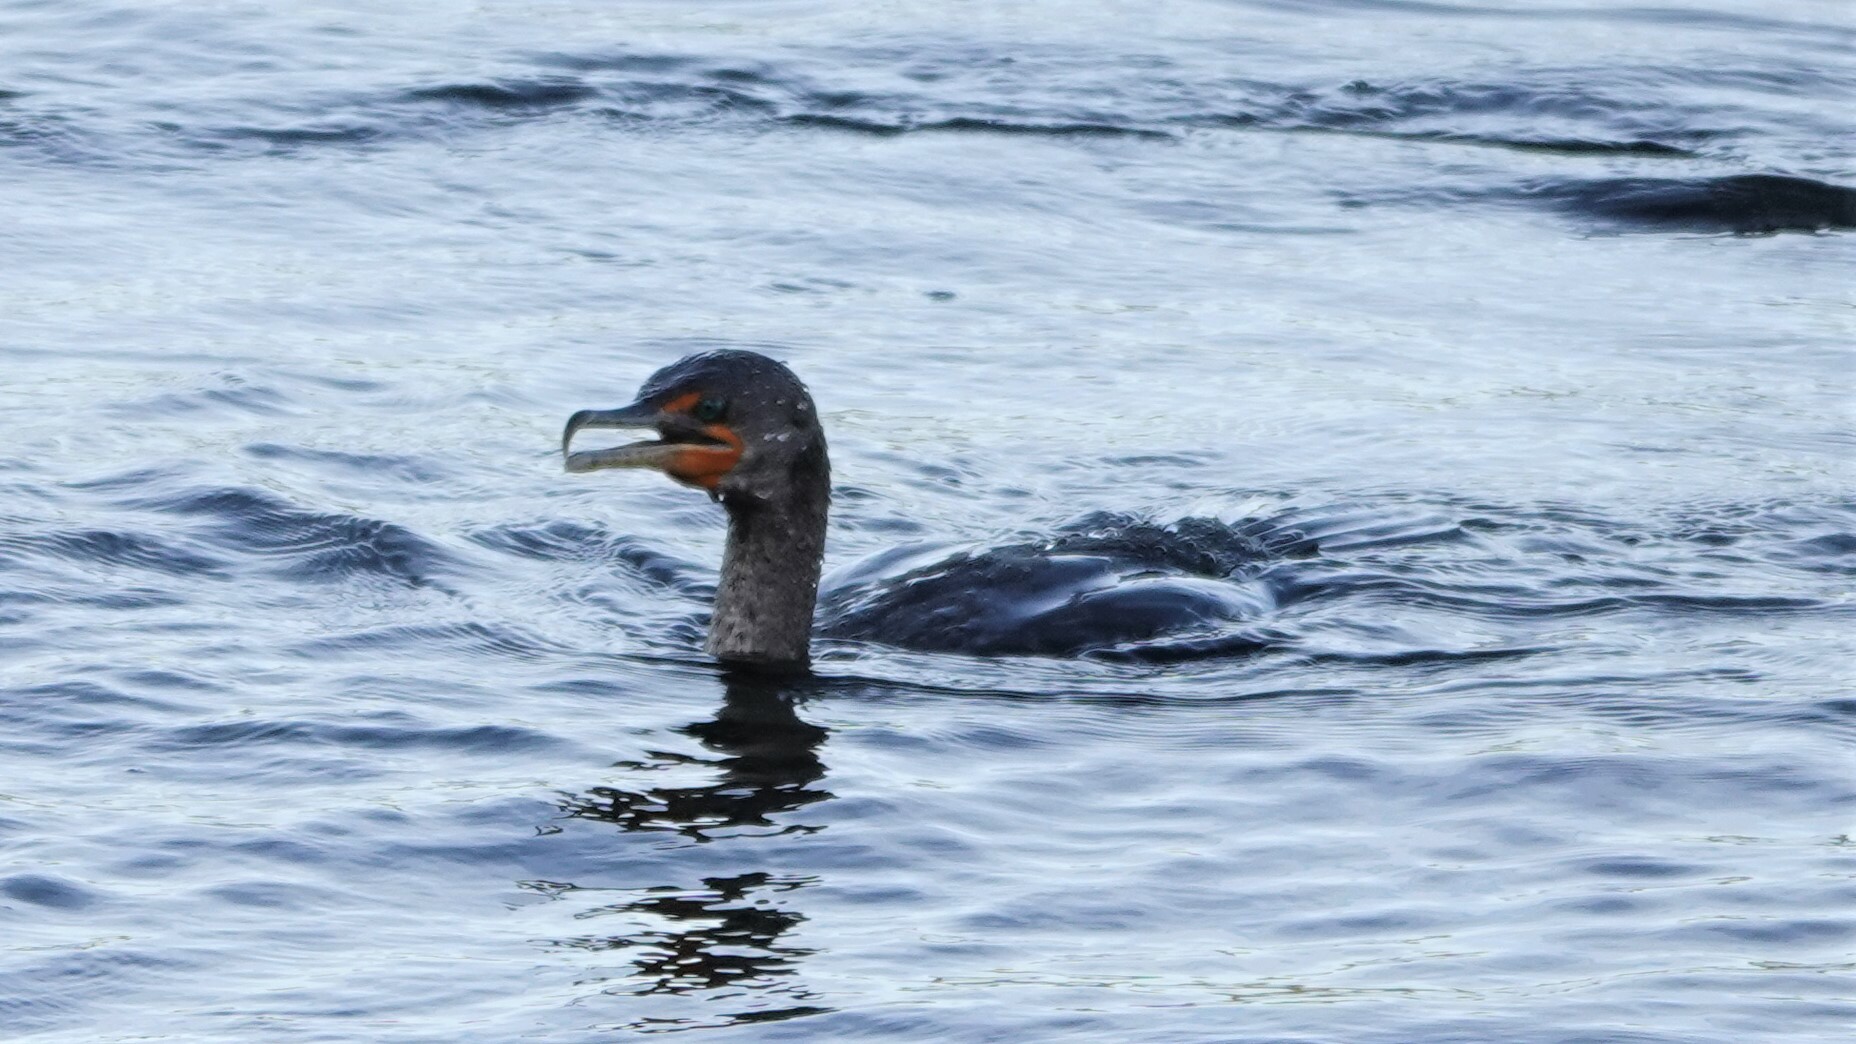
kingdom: Animalia
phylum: Chordata
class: Aves
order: Suliformes
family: Phalacrocoracidae
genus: Phalacrocorax
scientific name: Phalacrocorax auritus
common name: Double-crested cormorant
